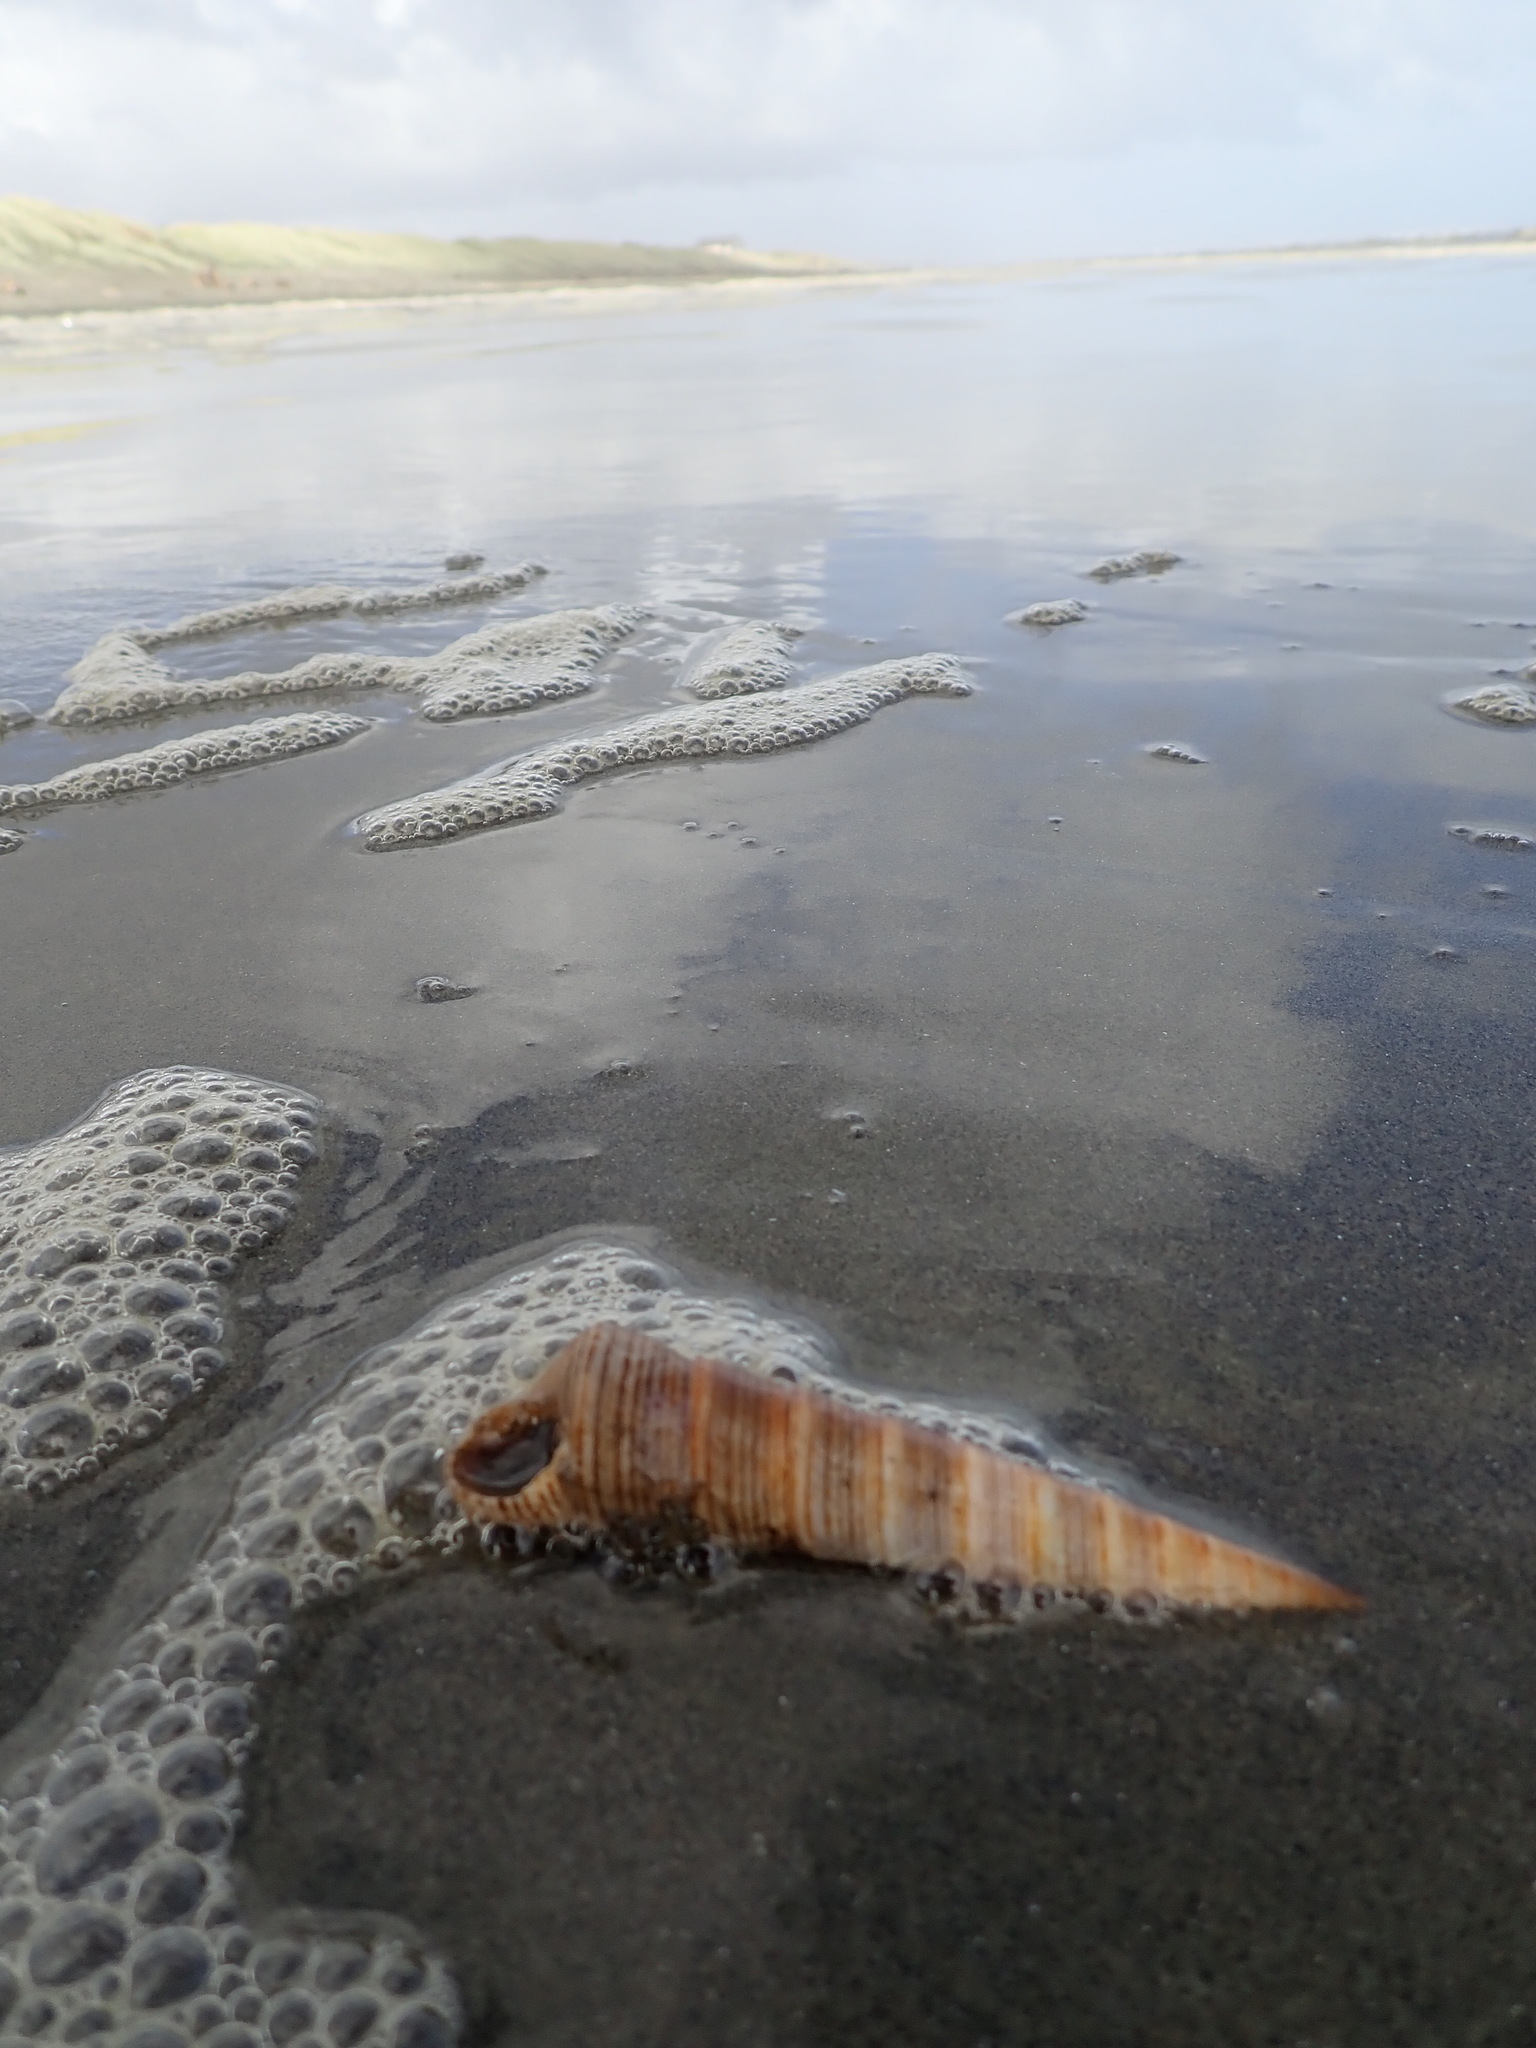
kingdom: Animalia
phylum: Mollusca
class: Gastropoda
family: Turritellidae
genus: Zeacolpus
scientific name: Zeacolpus vittatus
